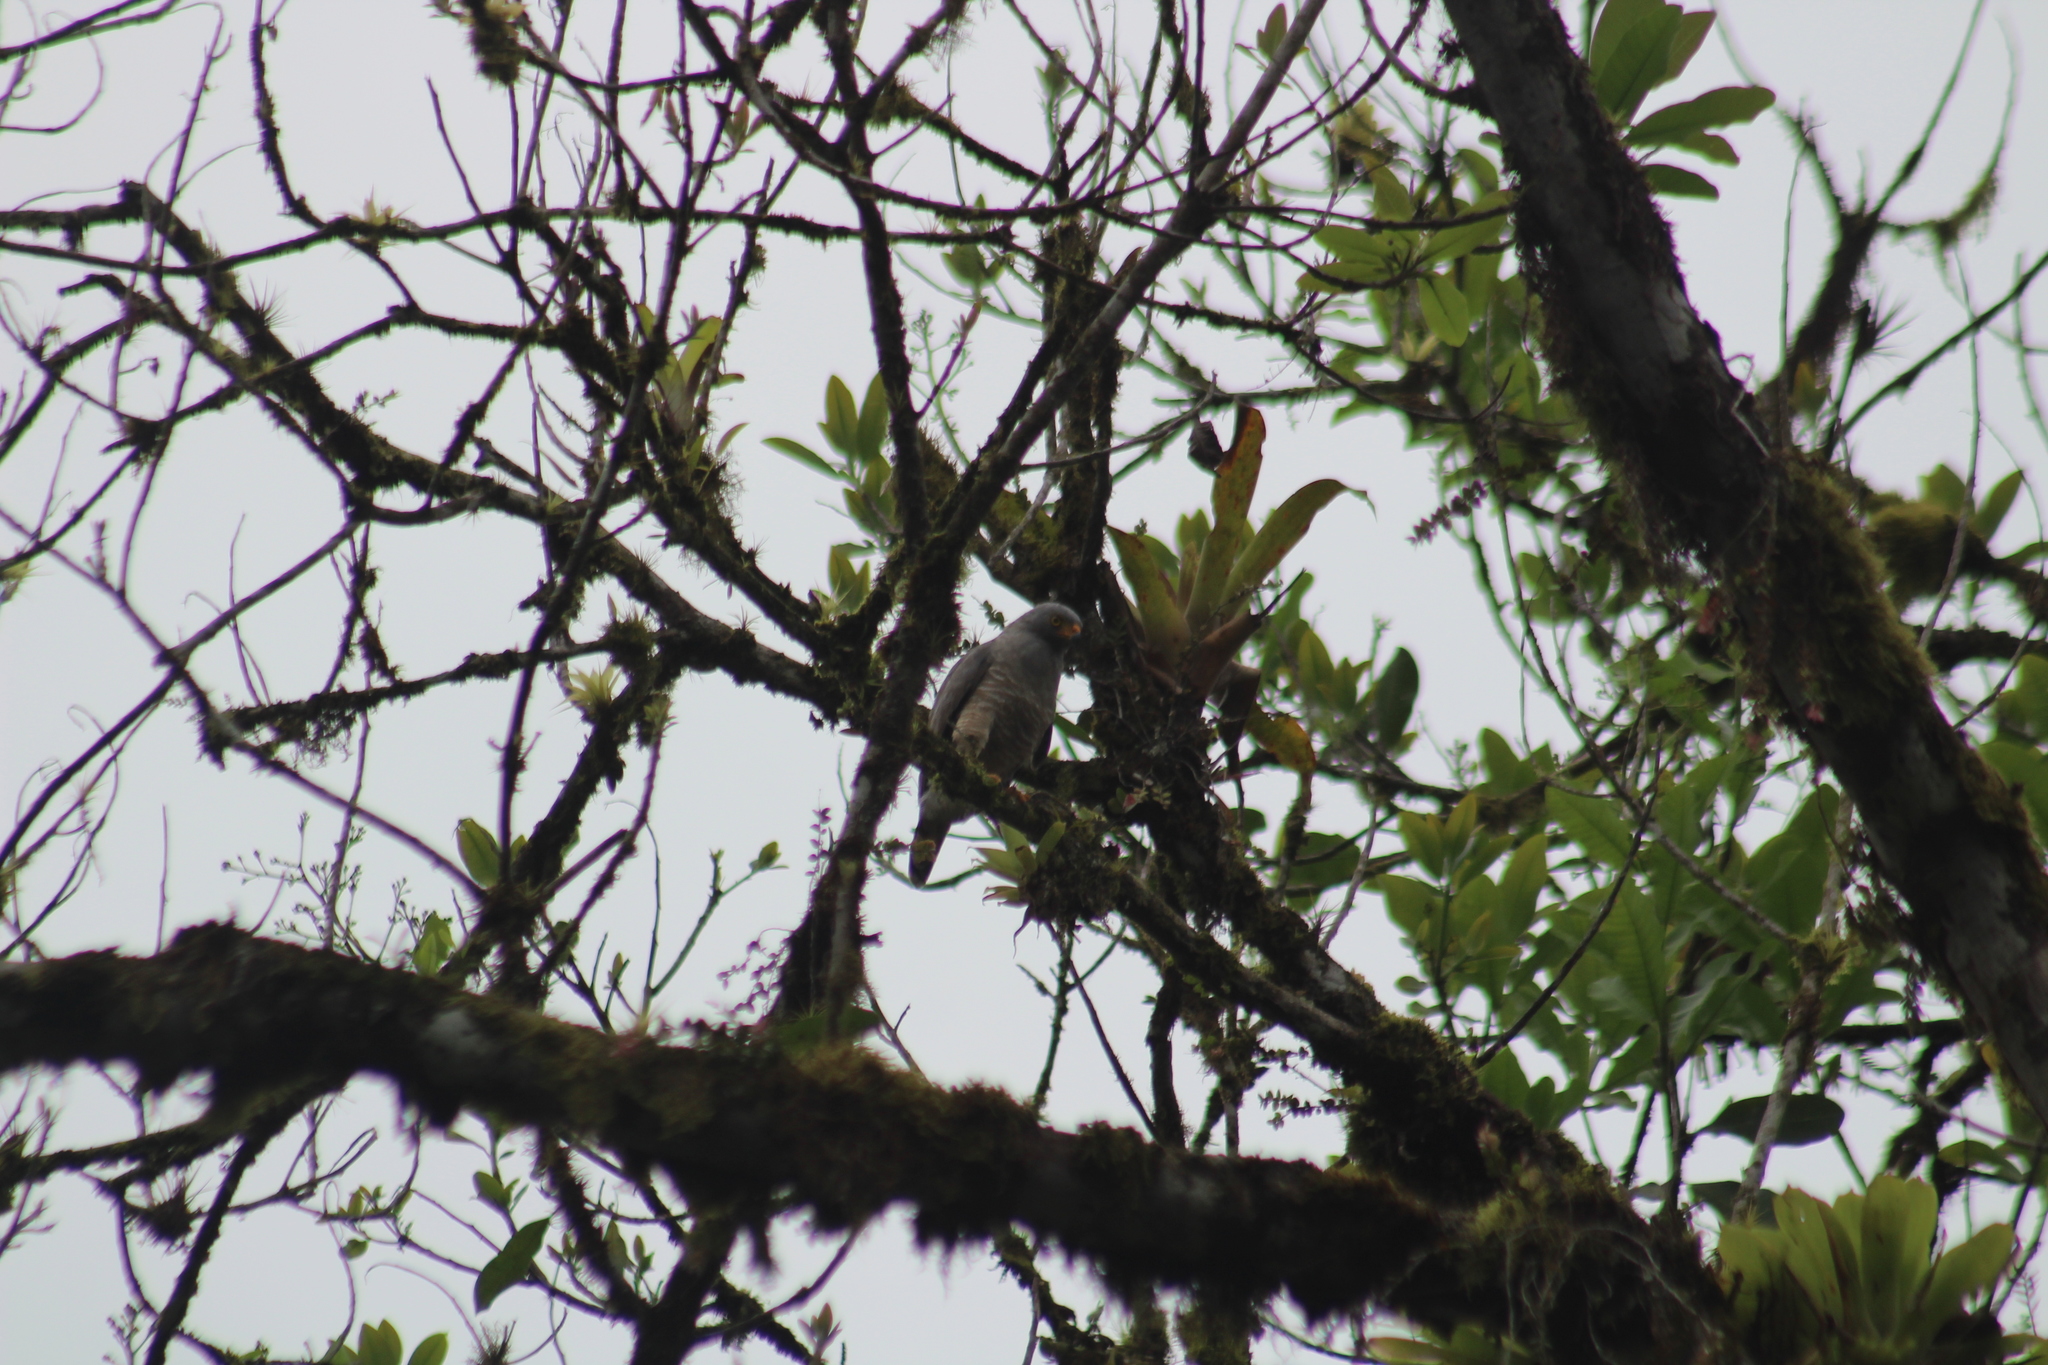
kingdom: Animalia
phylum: Chordata
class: Aves
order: Accipitriformes
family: Accipitridae
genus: Rupornis
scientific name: Rupornis magnirostris
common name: Roadside hawk
